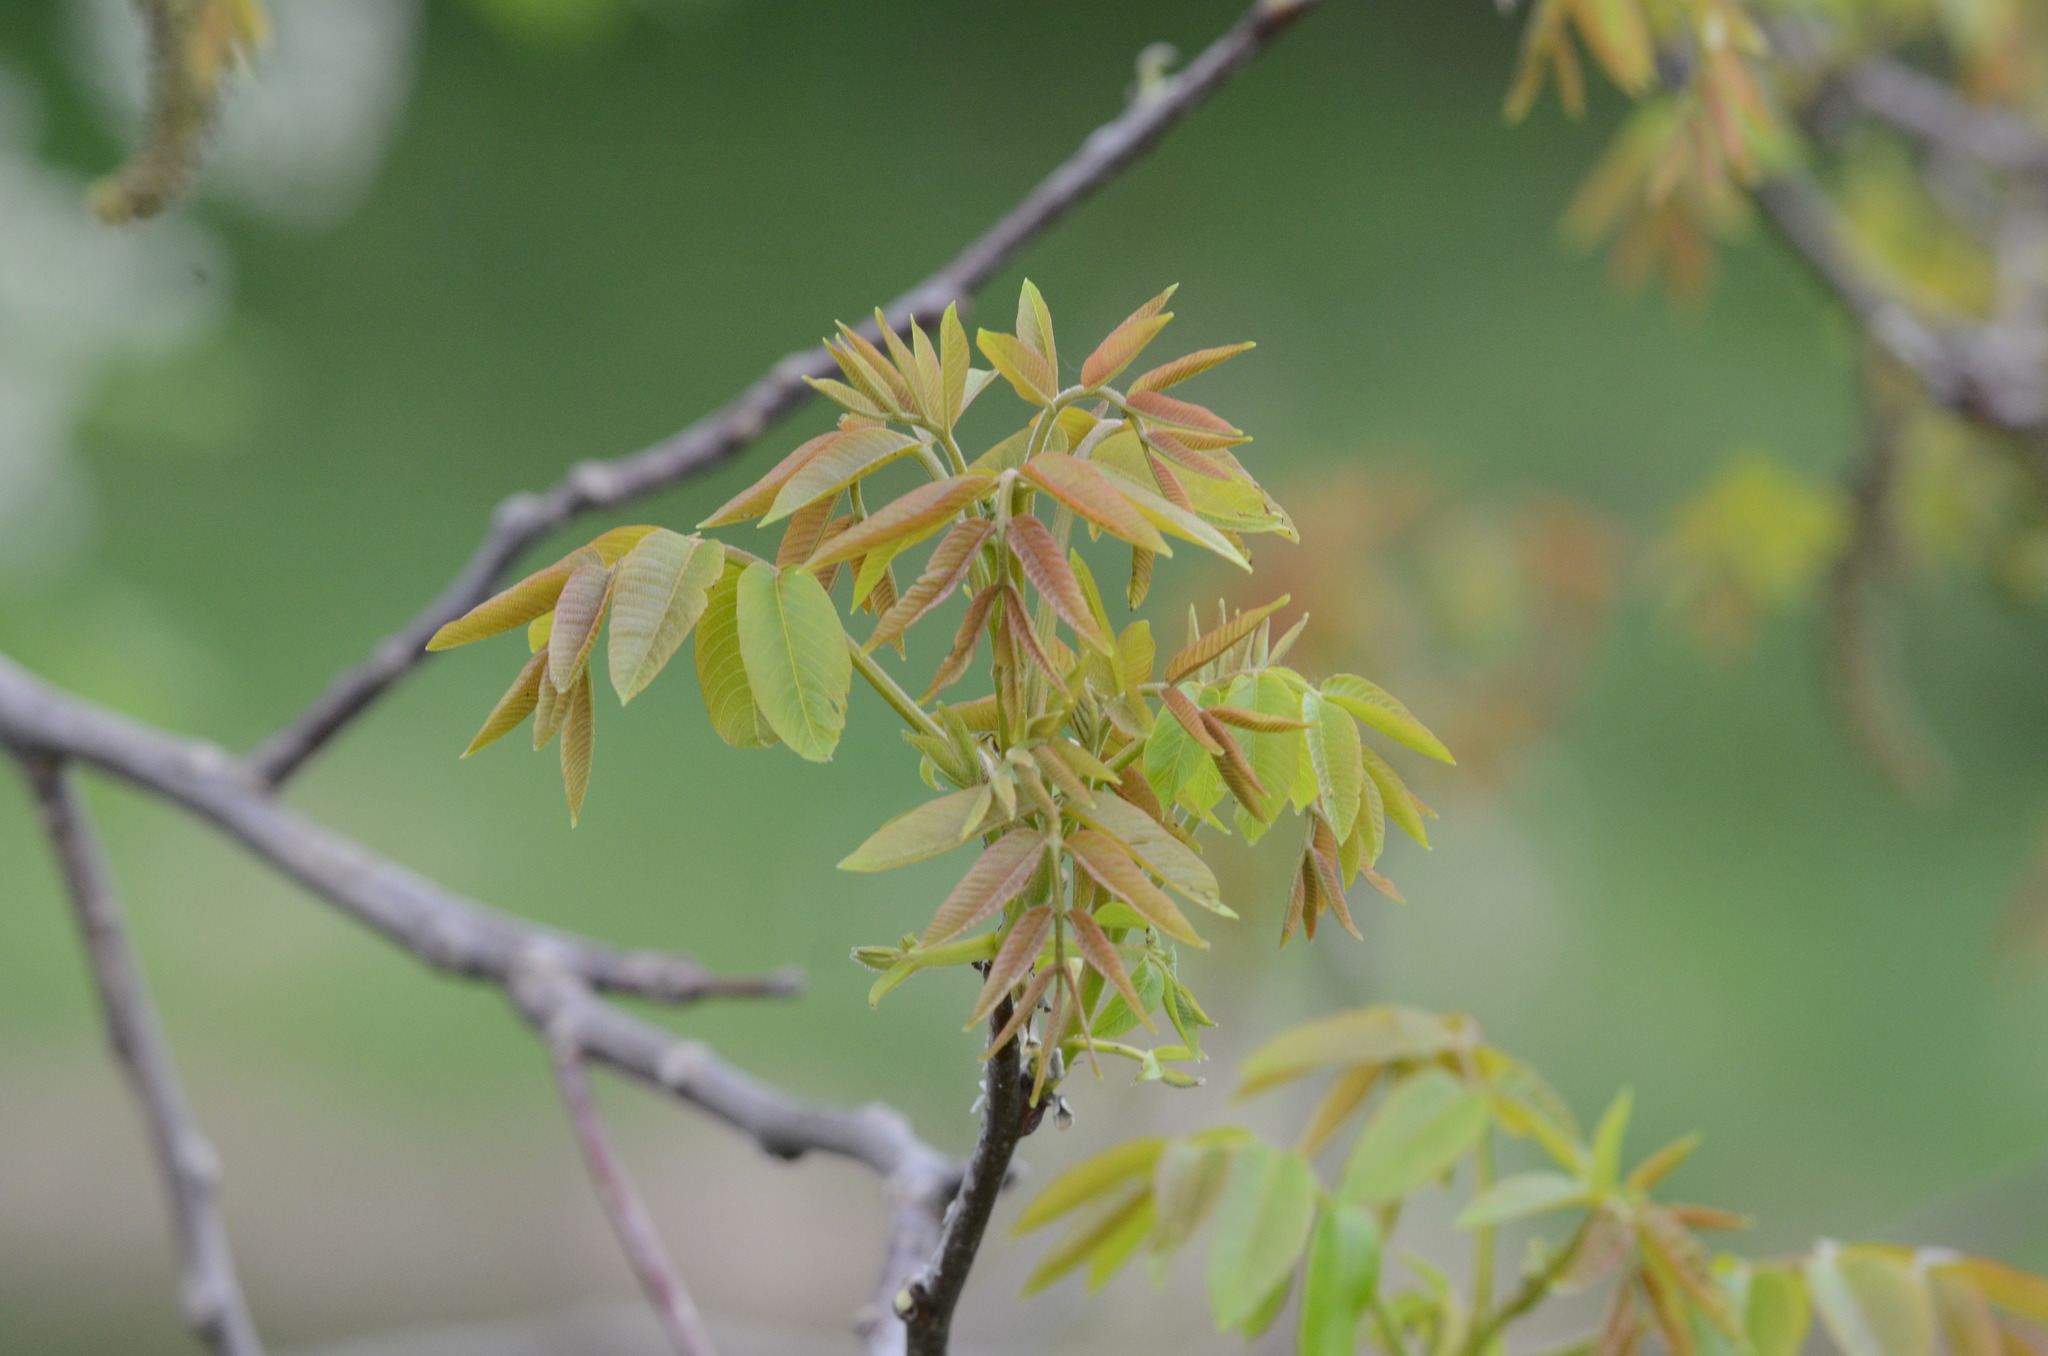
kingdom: Plantae
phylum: Tracheophyta
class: Magnoliopsida
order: Fagales
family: Juglandaceae
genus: Juglans
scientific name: Juglans regia
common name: Walnut
